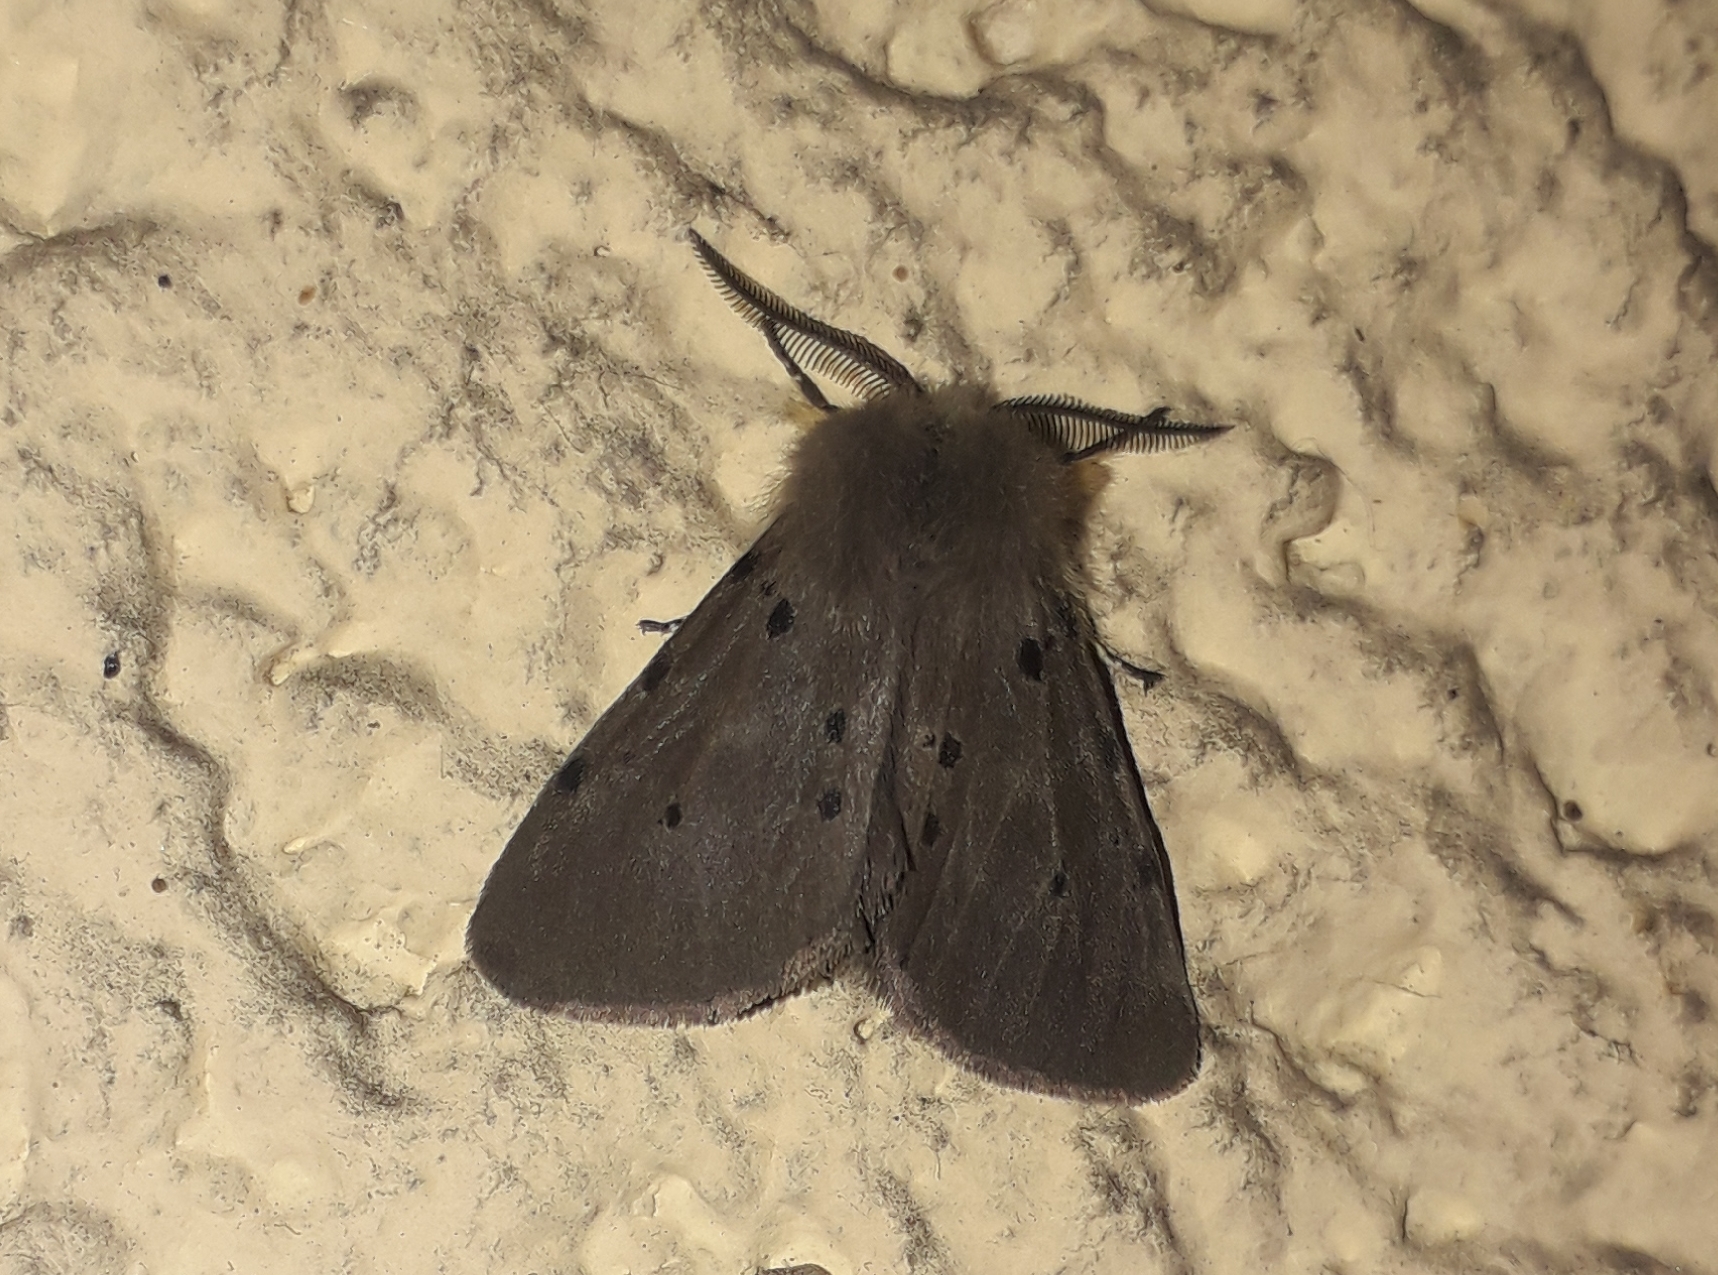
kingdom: Animalia
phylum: Arthropoda
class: Insecta
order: Lepidoptera
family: Erebidae
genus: Diaphora
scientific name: Diaphora mendica
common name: Muslin moth
